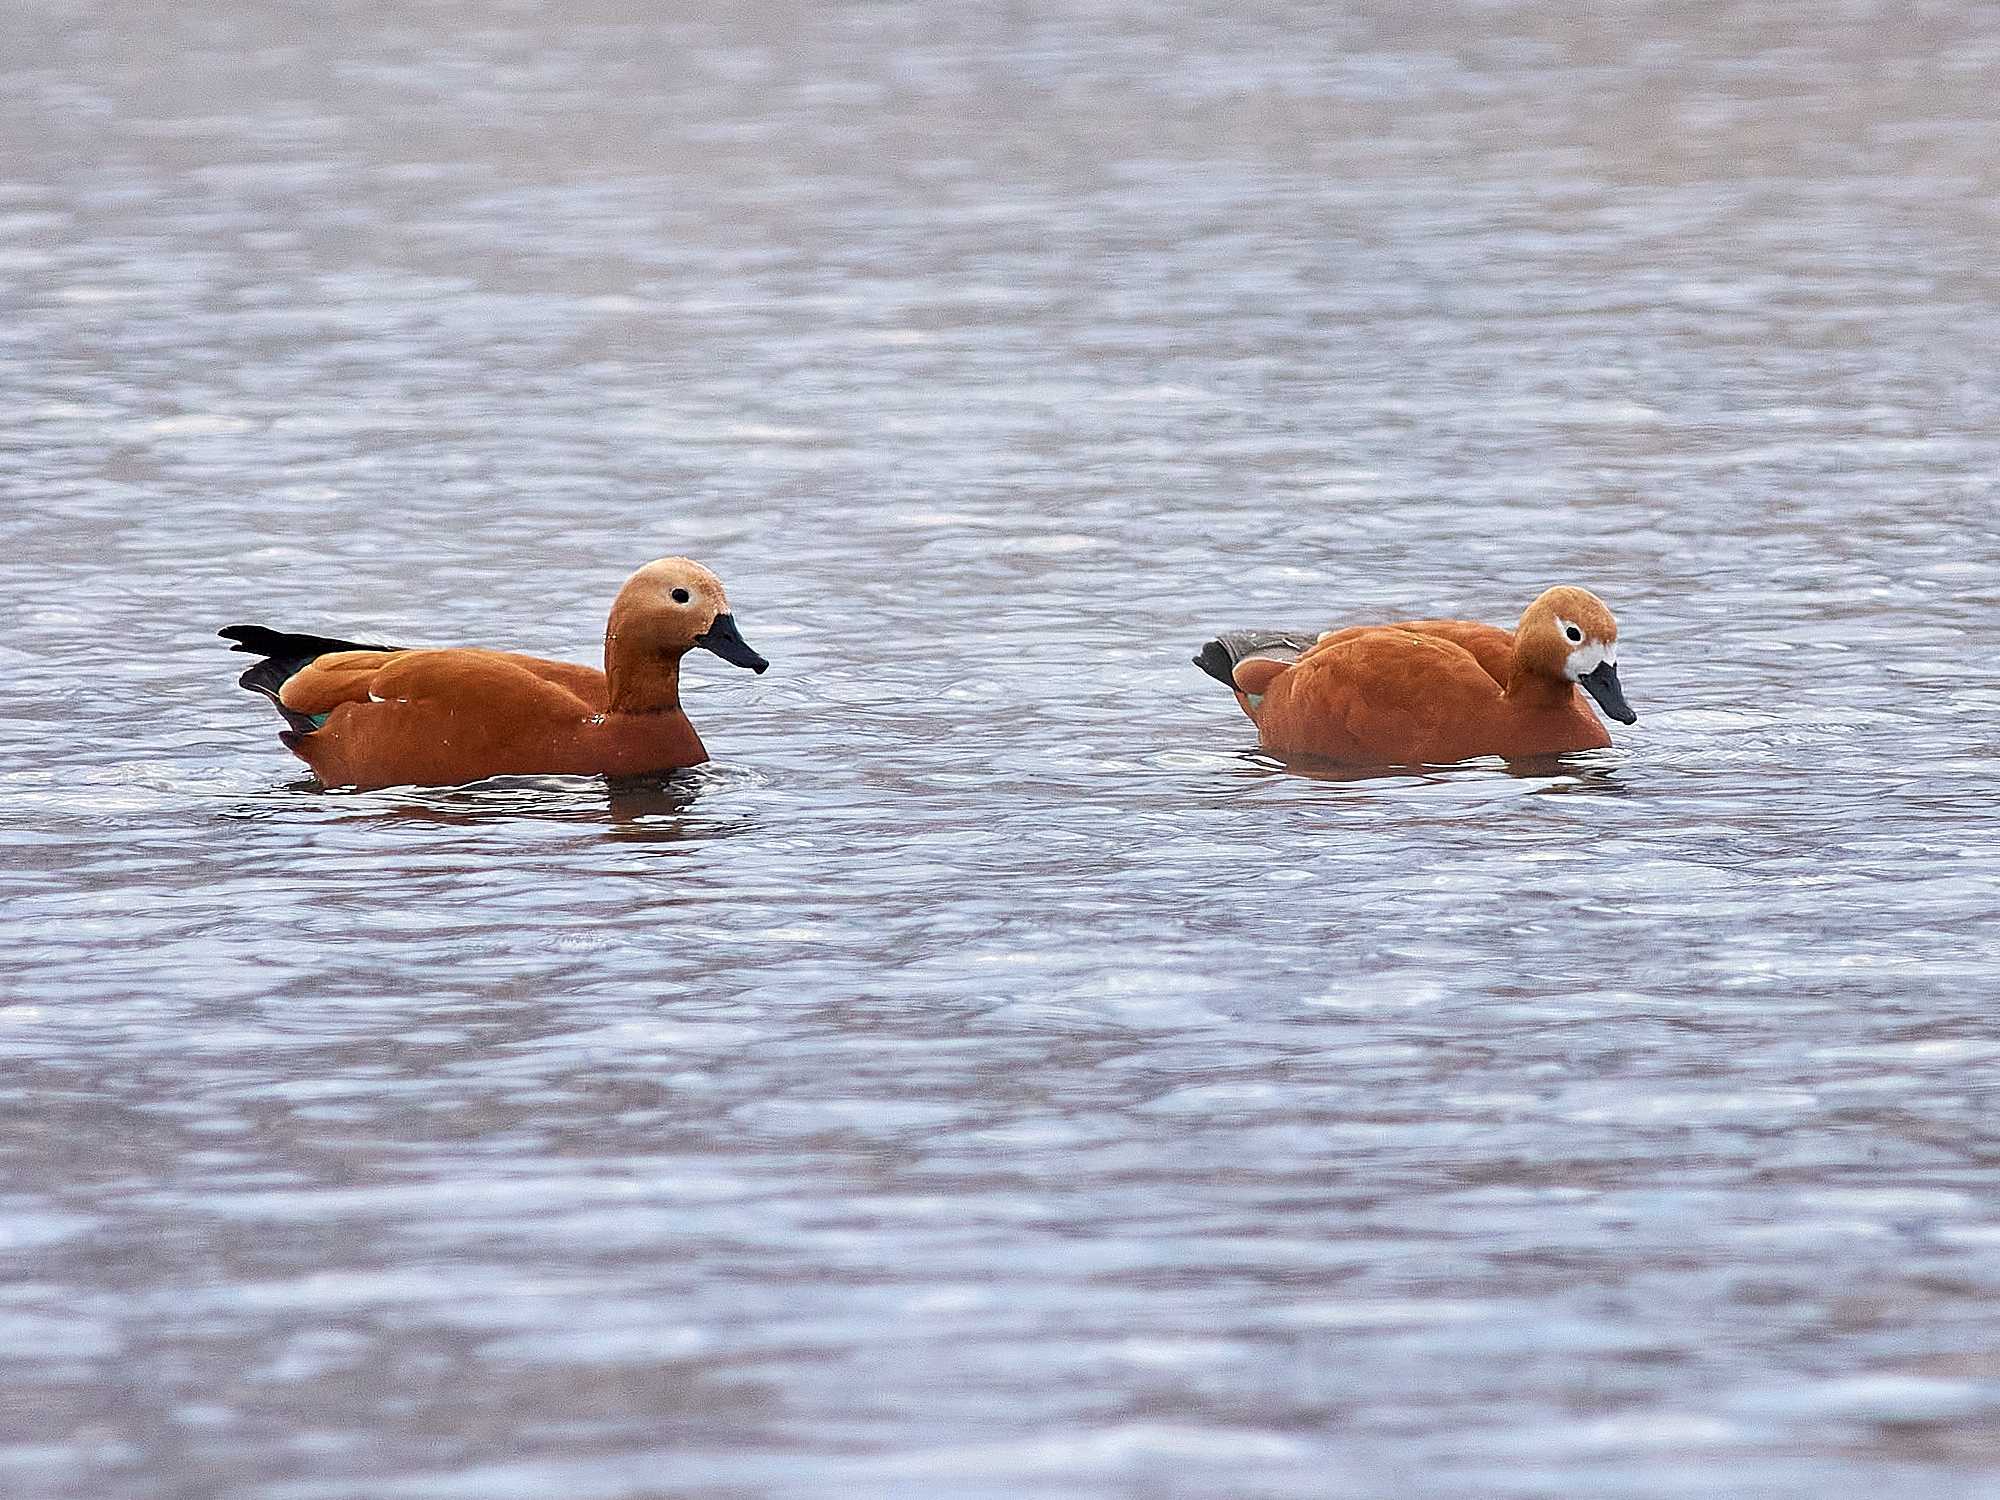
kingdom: Animalia
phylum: Chordata
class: Aves
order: Anseriformes
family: Anatidae
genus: Tadorna
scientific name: Tadorna ferruginea
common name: Ruddy shelduck
